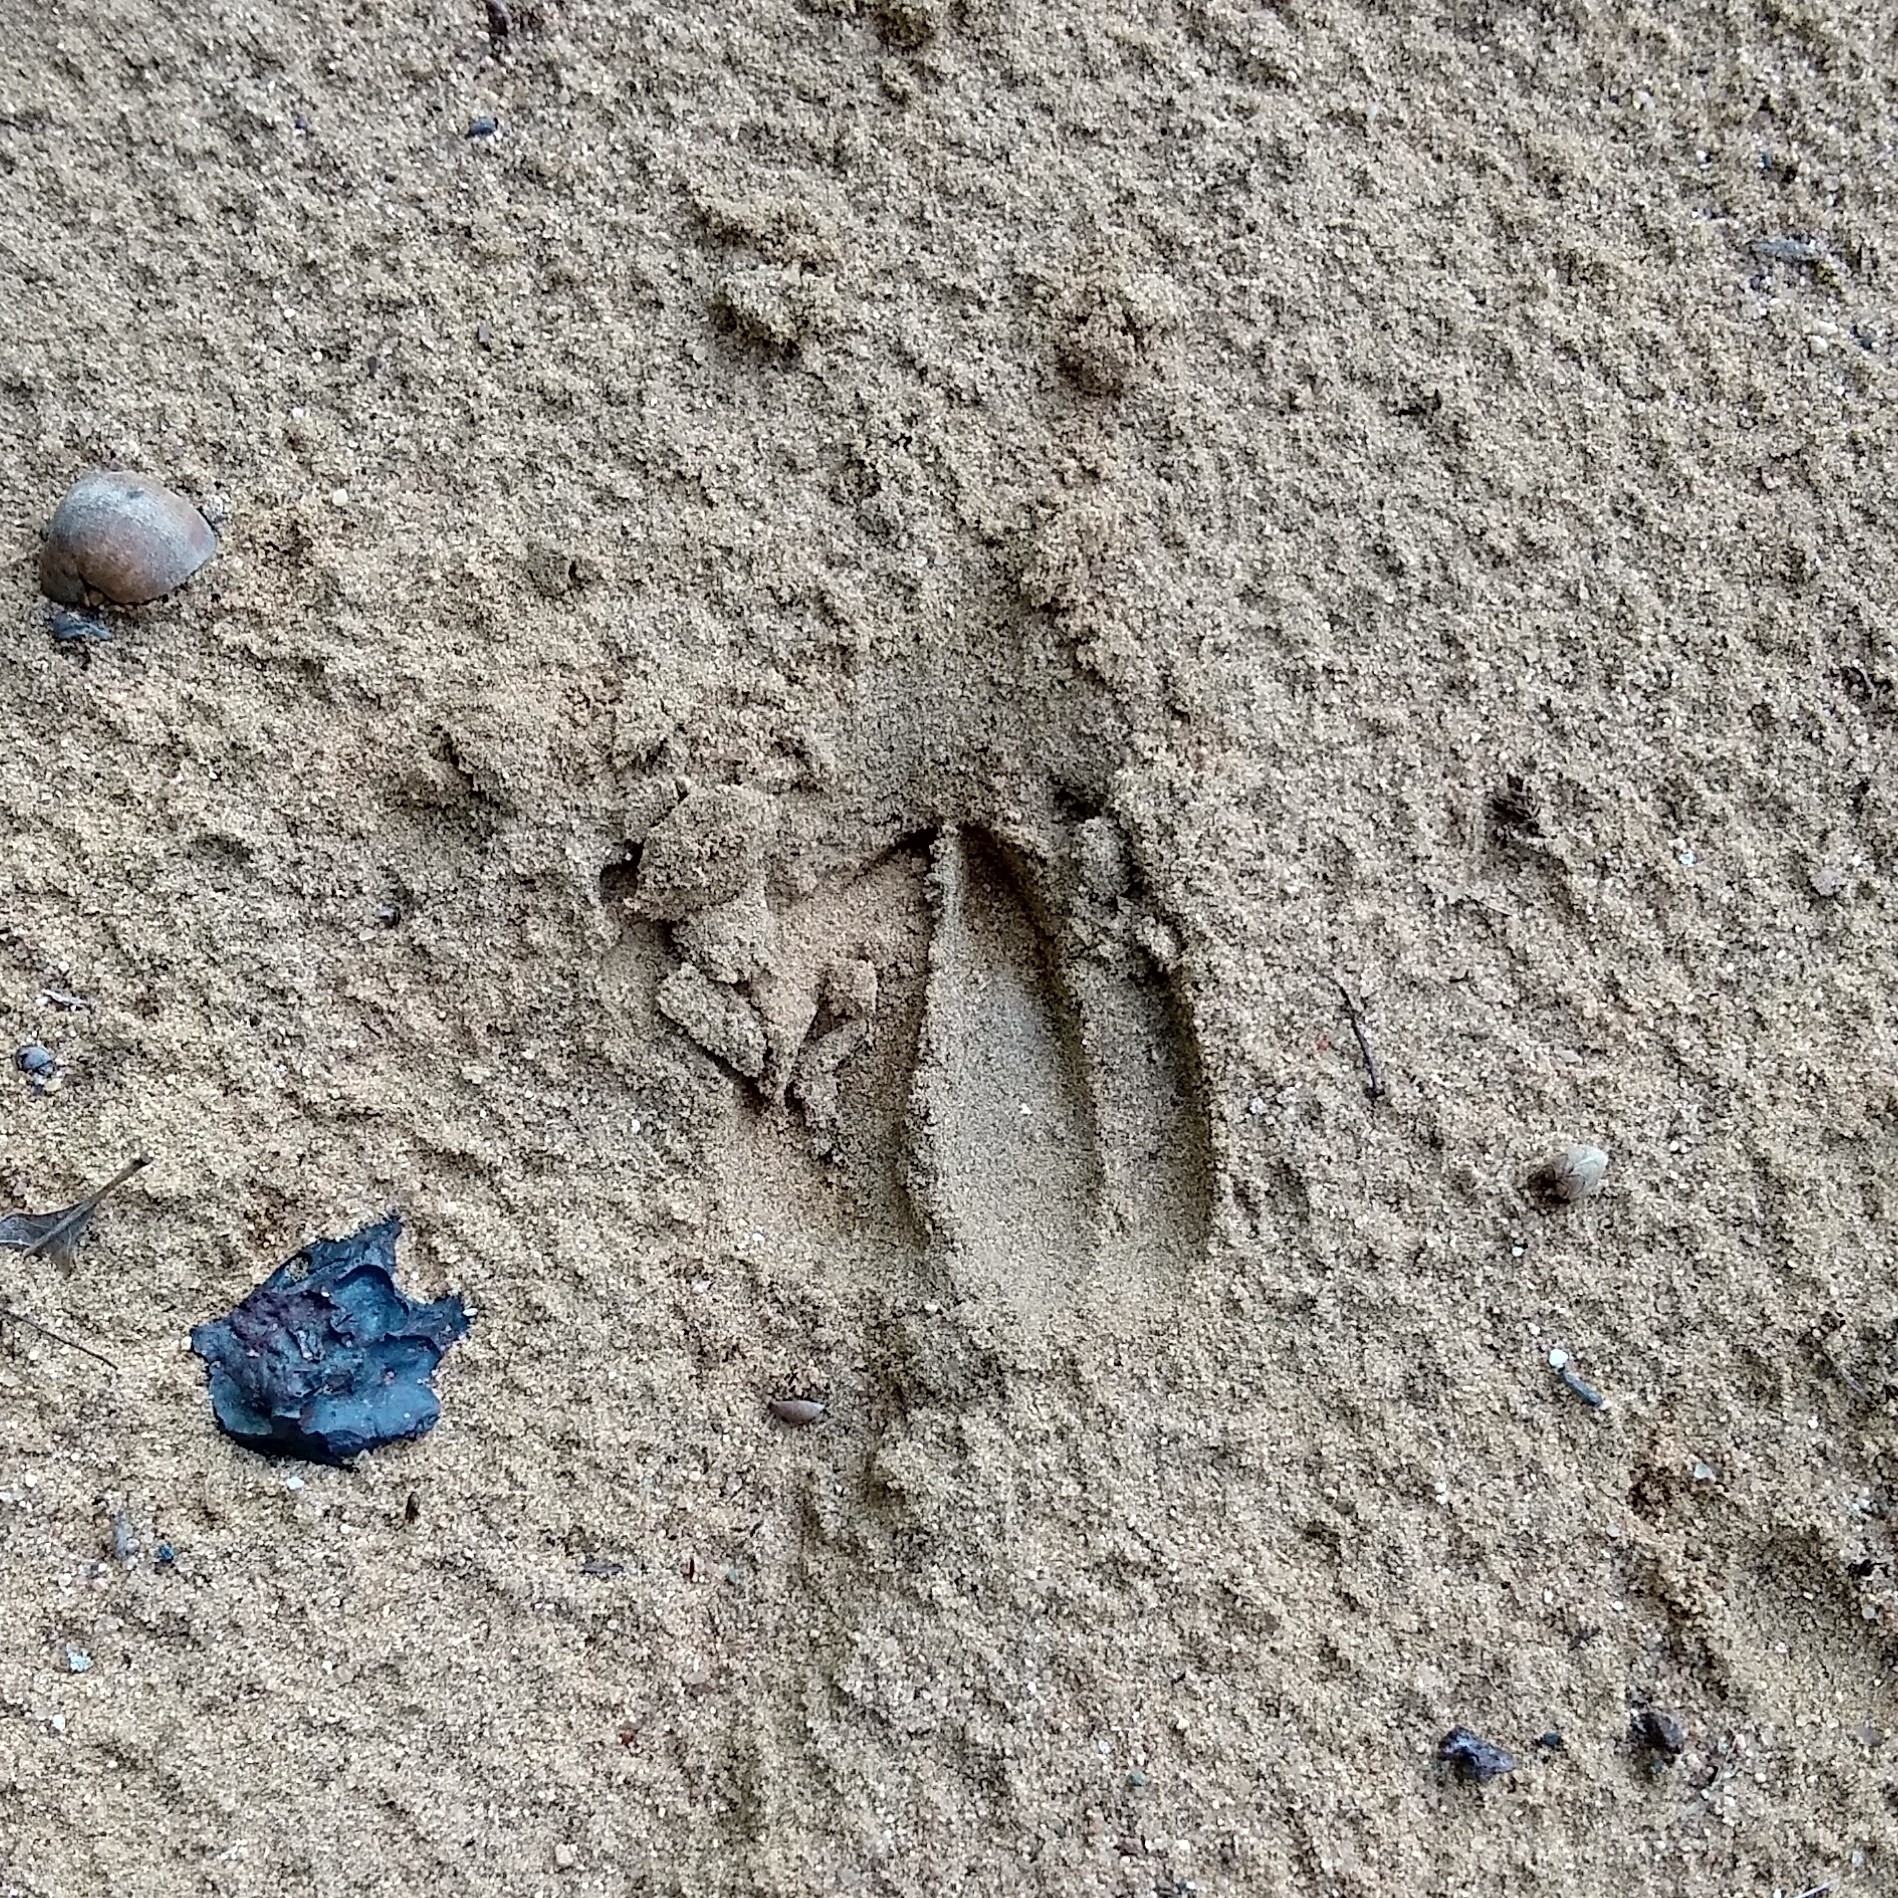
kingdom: Animalia
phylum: Chordata
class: Mammalia
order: Artiodactyla
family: Cervidae
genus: Odocoileus
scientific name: Odocoileus virginianus
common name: White-tailed deer
